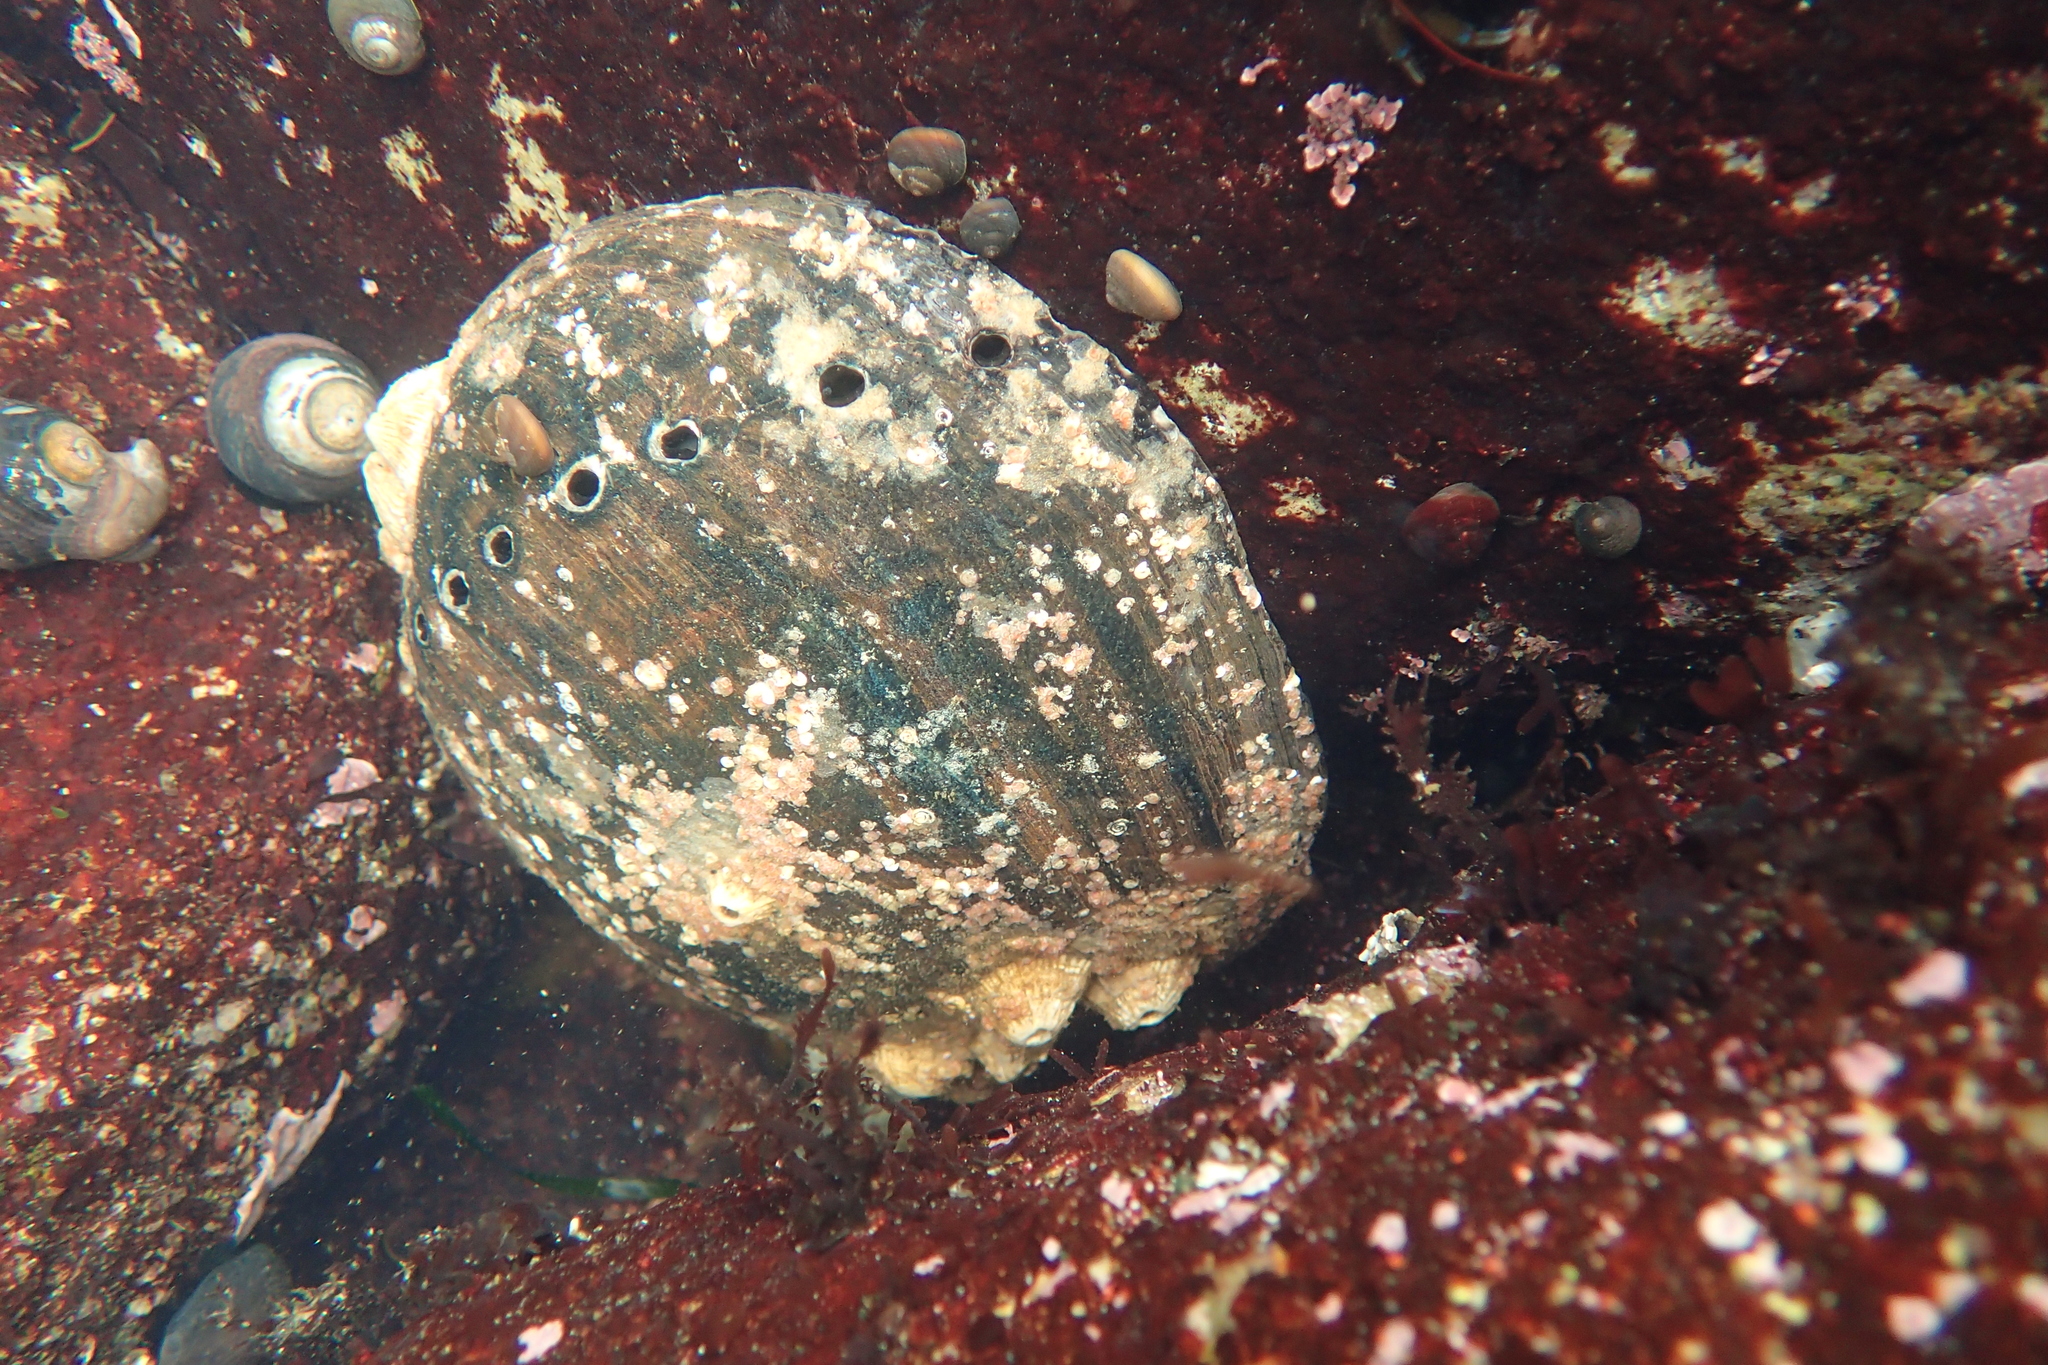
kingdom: Animalia
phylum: Mollusca
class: Gastropoda
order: Lepetellida
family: Haliotidae
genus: Haliotis
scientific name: Haliotis cracherodii
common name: Black abalone
